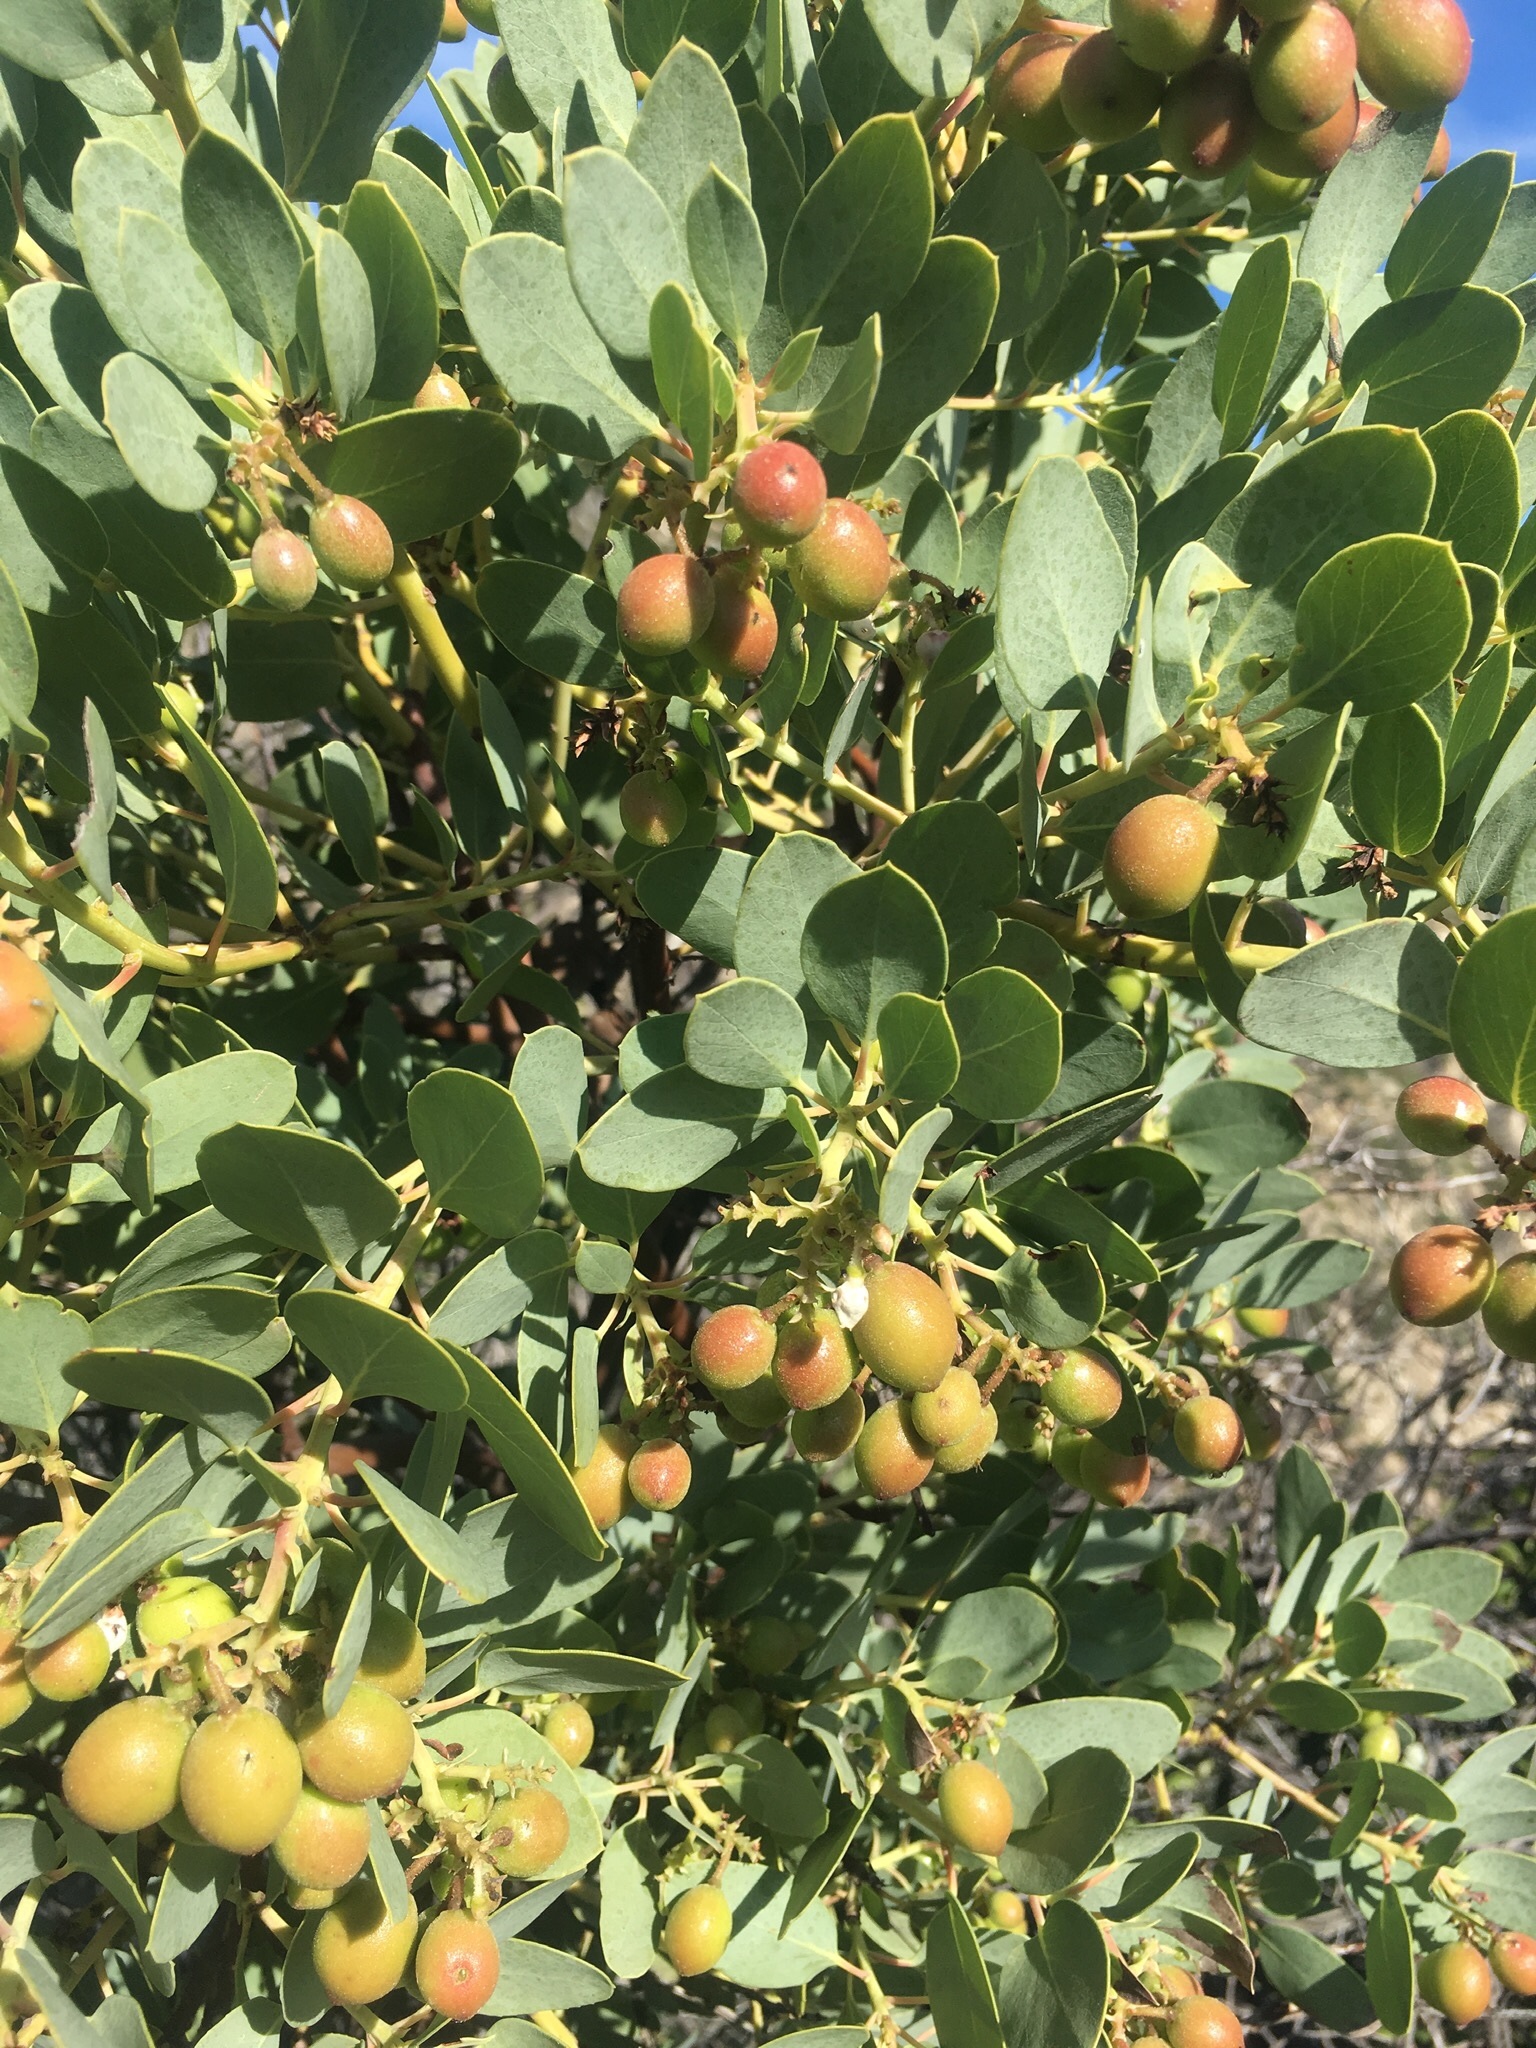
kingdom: Plantae
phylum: Tracheophyta
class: Magnoliopsida
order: Ericales
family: Ericaceae
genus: Arctostaphylos
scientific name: Arctostaphylos glauca
